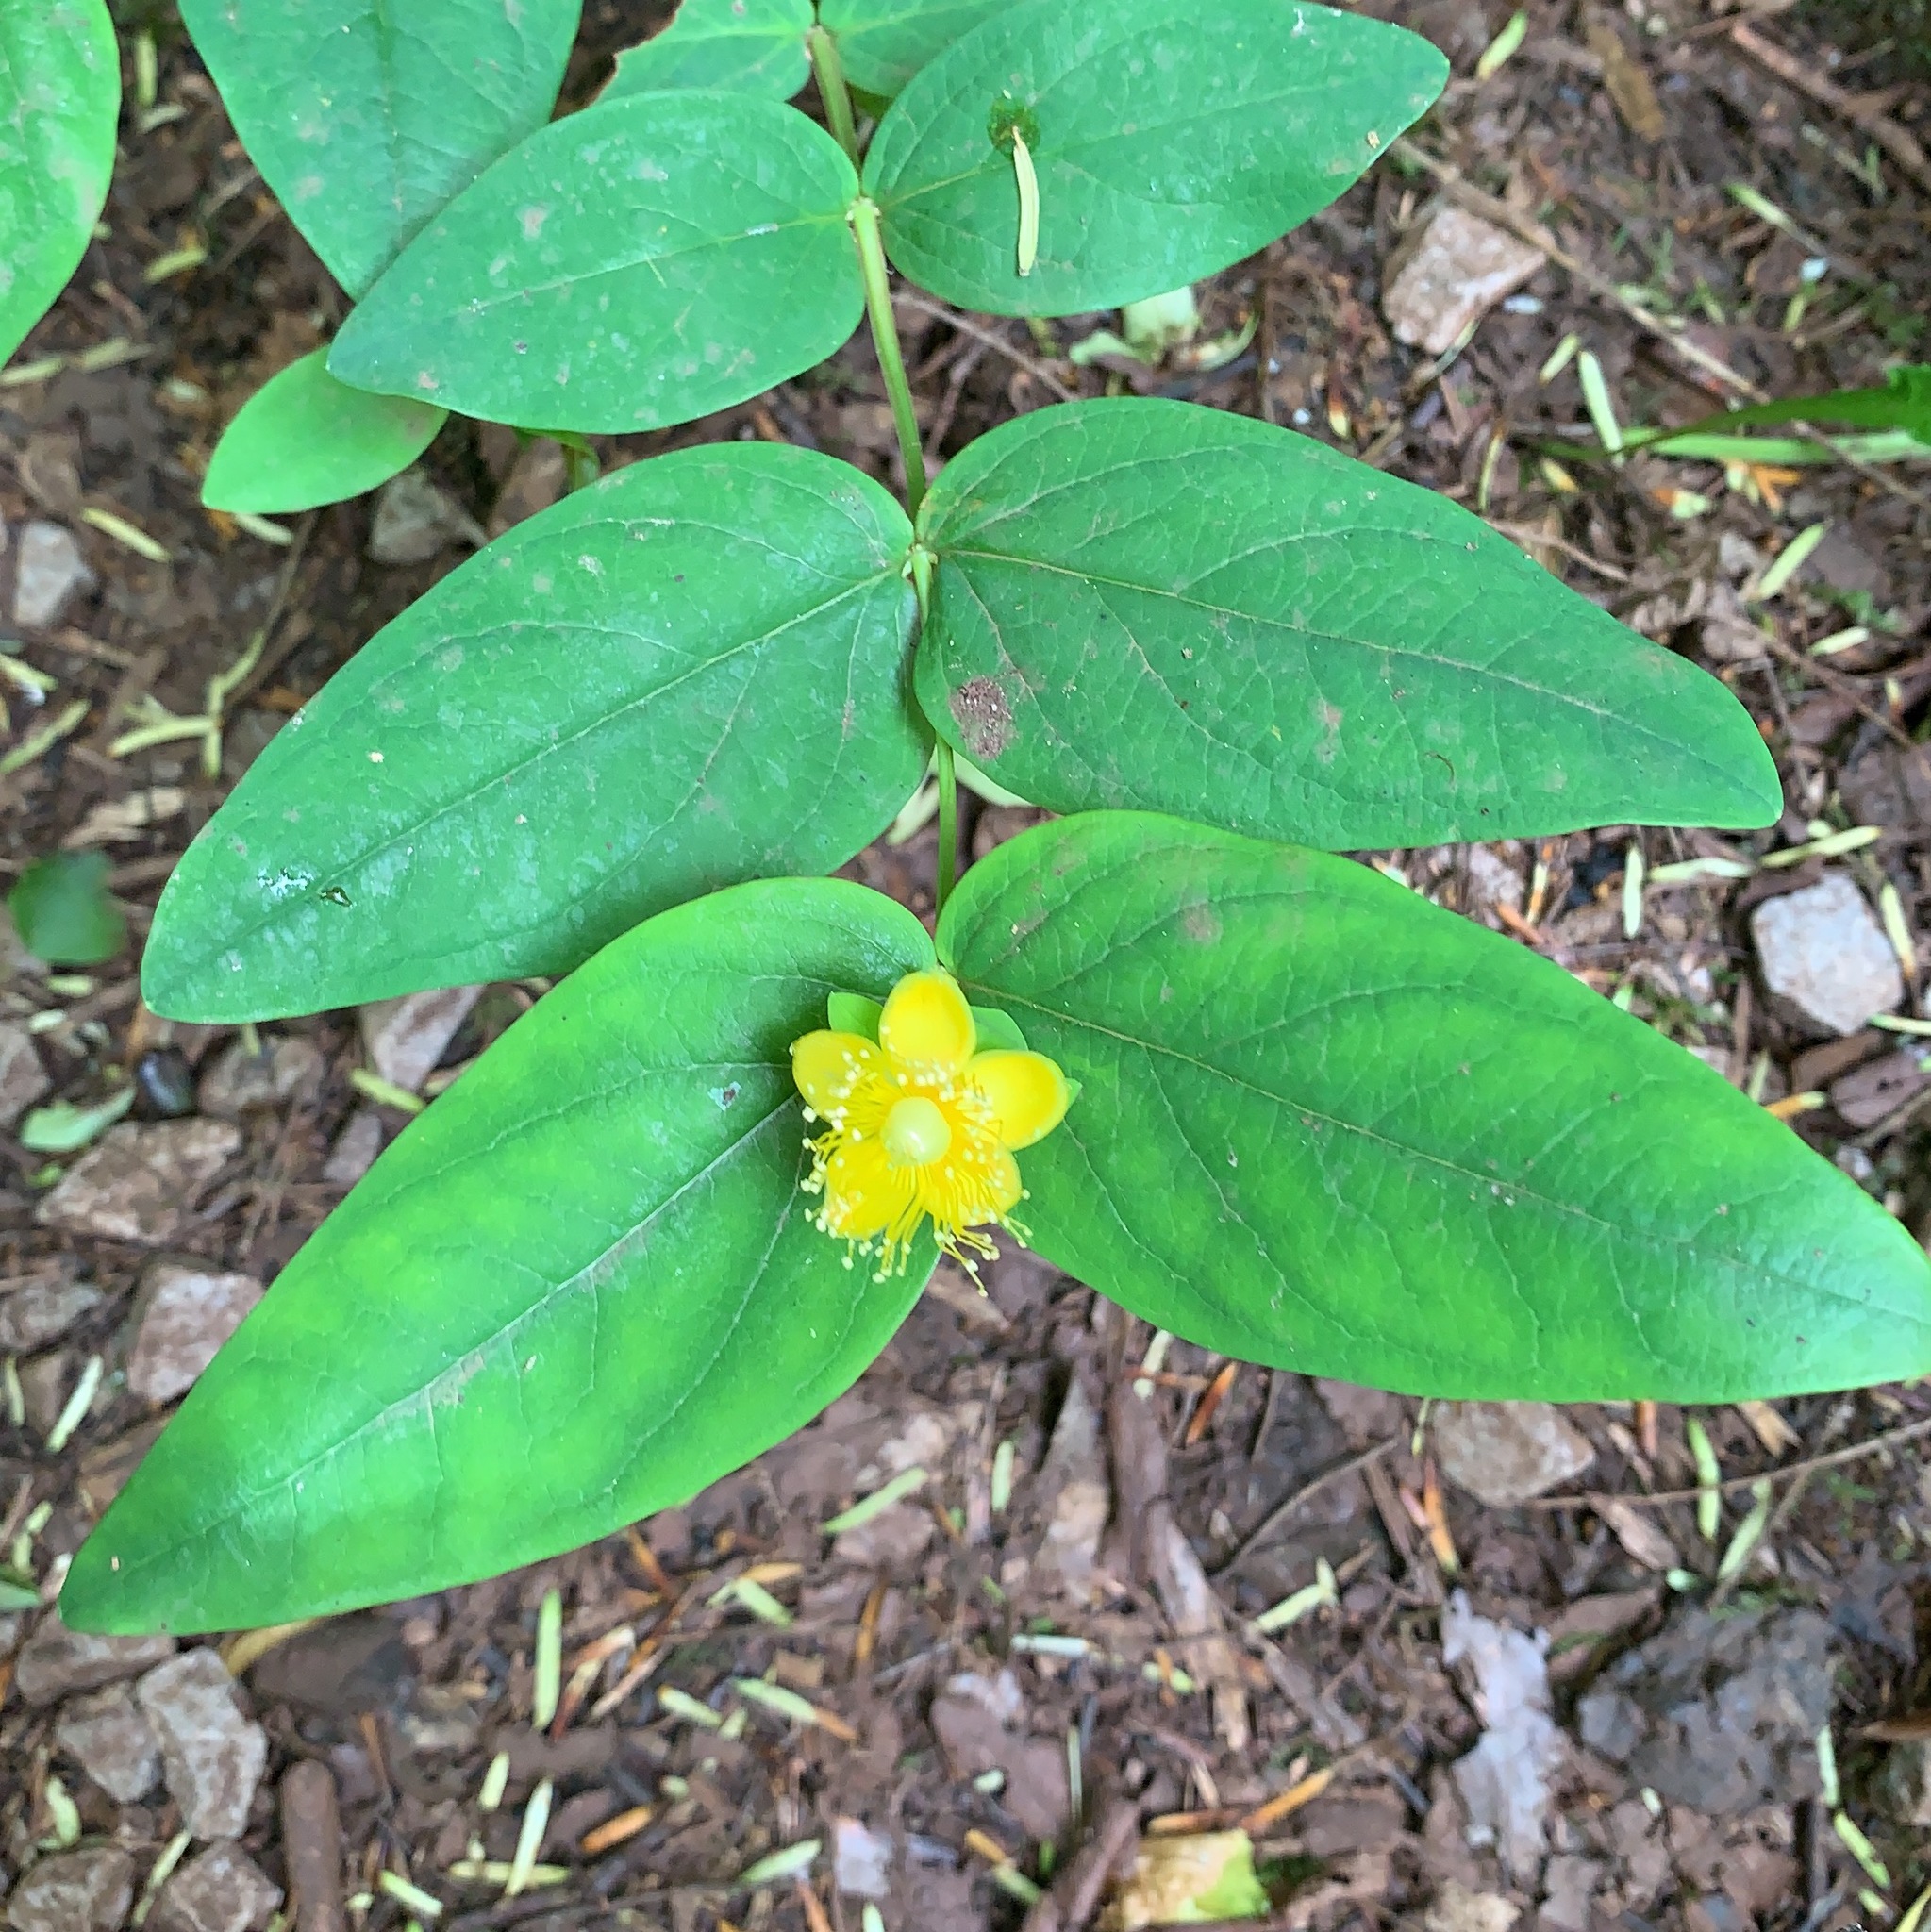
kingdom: Plantae
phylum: Tracheophyta
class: Magnoliopsida
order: Malpighiales
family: Hypericaceae
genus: Hypericum
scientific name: Hypericum androsaemum
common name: Sweet-amber
